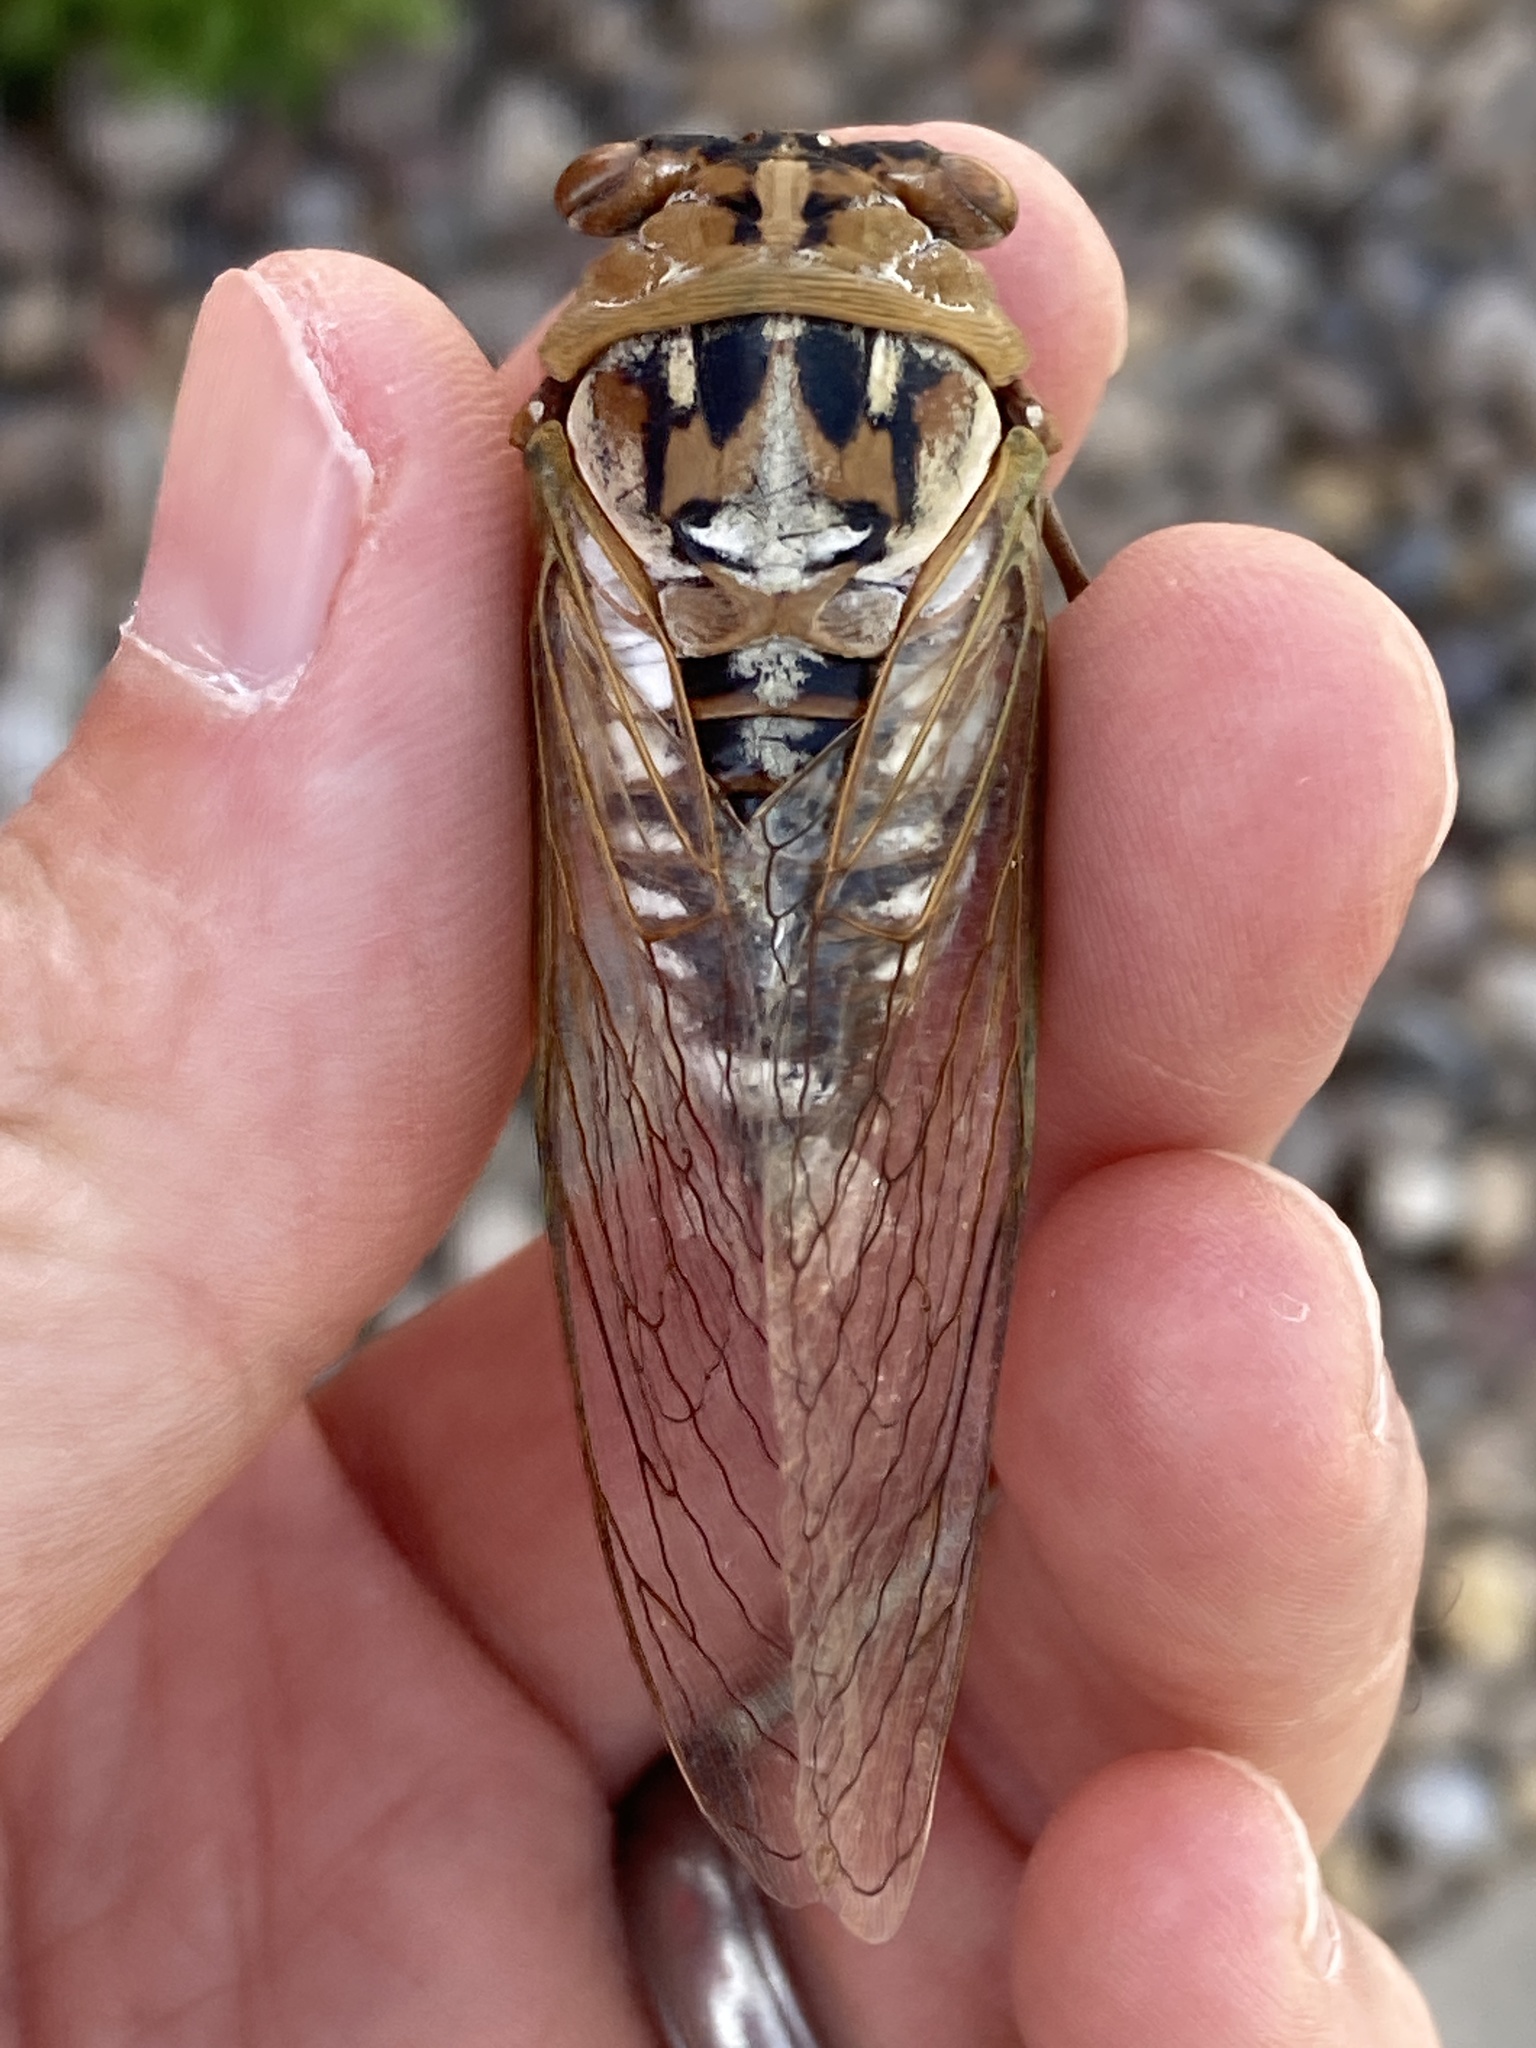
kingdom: Animalia
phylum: Arthropoda
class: Insecta
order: Hemiptera
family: Cicadidae
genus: Megatibicen
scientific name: Megatibicen dealbatus
